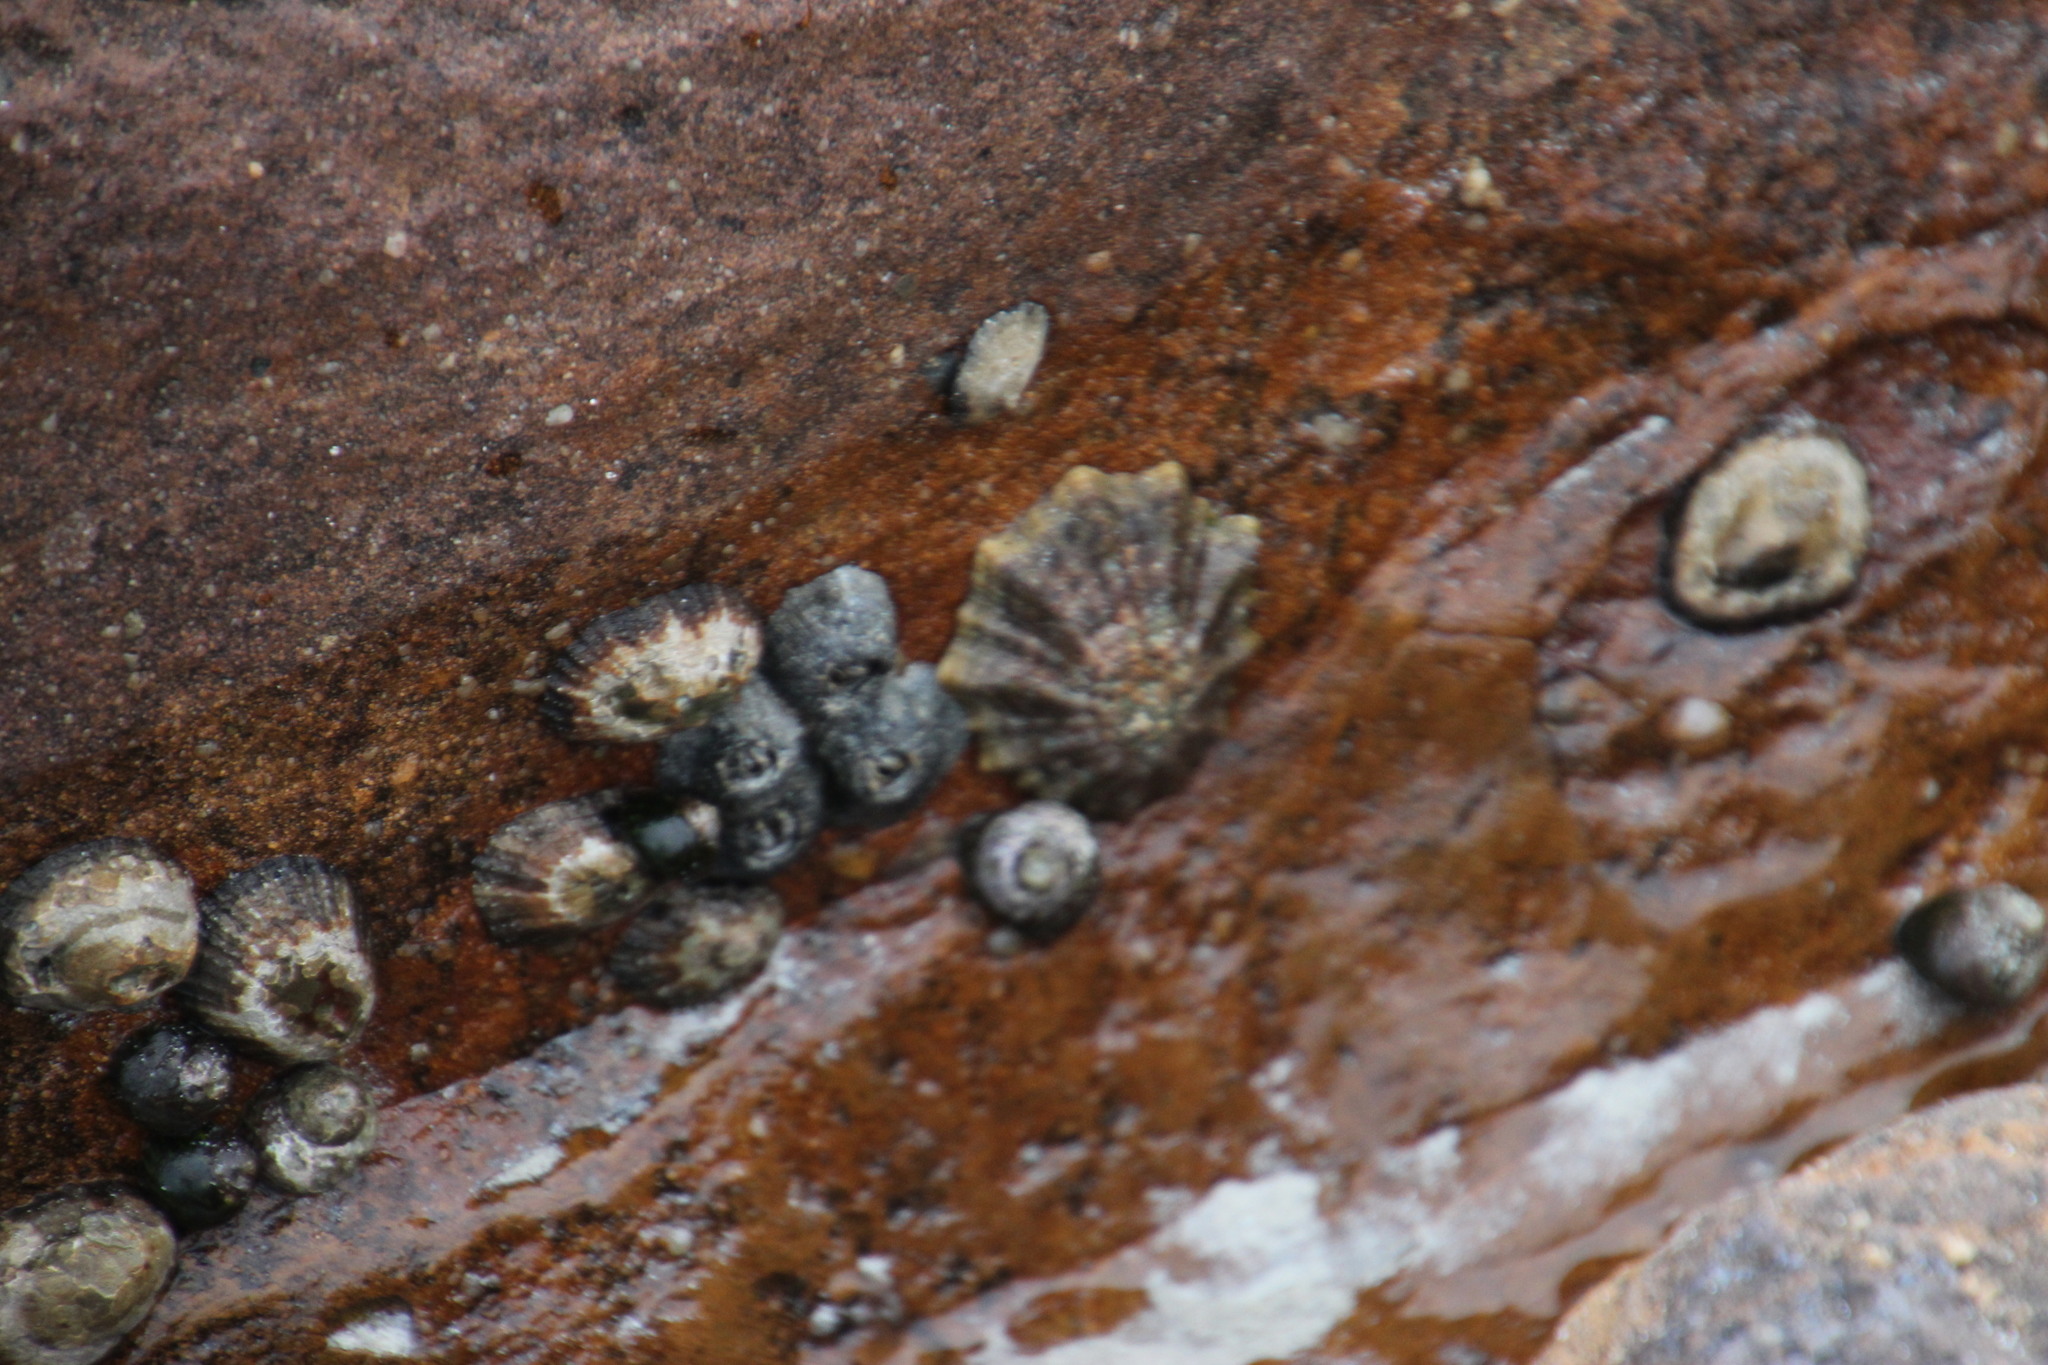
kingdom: Animalia
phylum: Mollusca
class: Gastropoda
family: Patellidae
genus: Scutellastra
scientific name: Scutellastra tabularis
